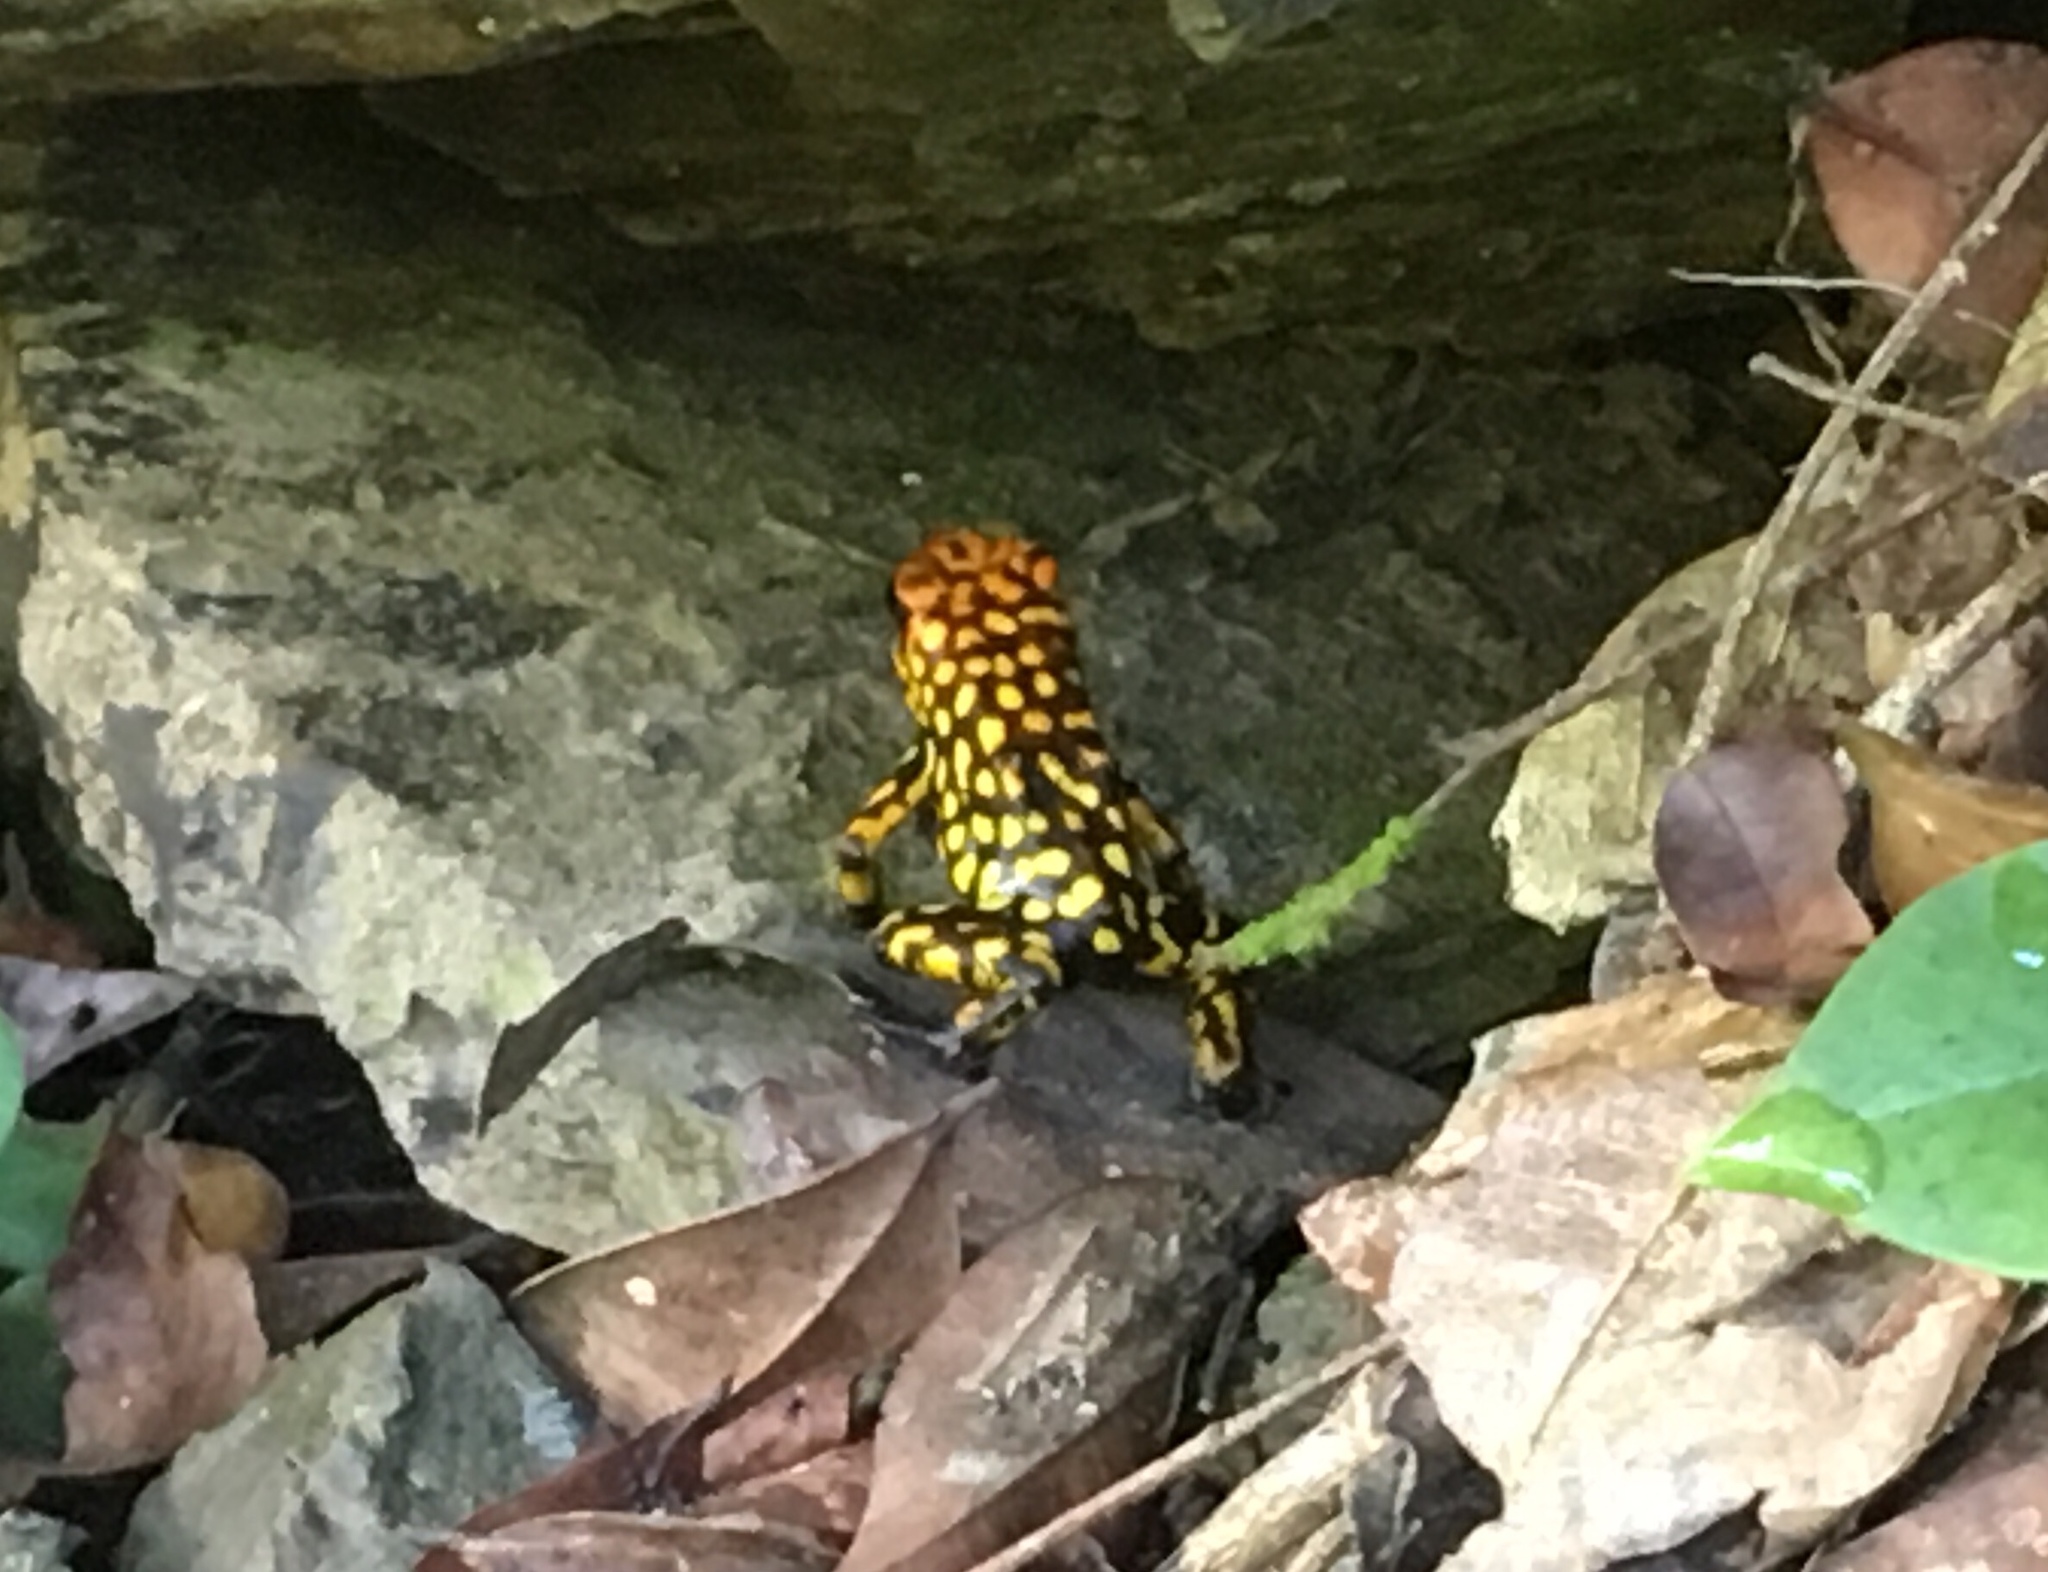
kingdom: Animalia
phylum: Chordata
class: Amphibia
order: Anura
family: Dendrobatidae
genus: Oophaga
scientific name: Oophaga anchicayensis
